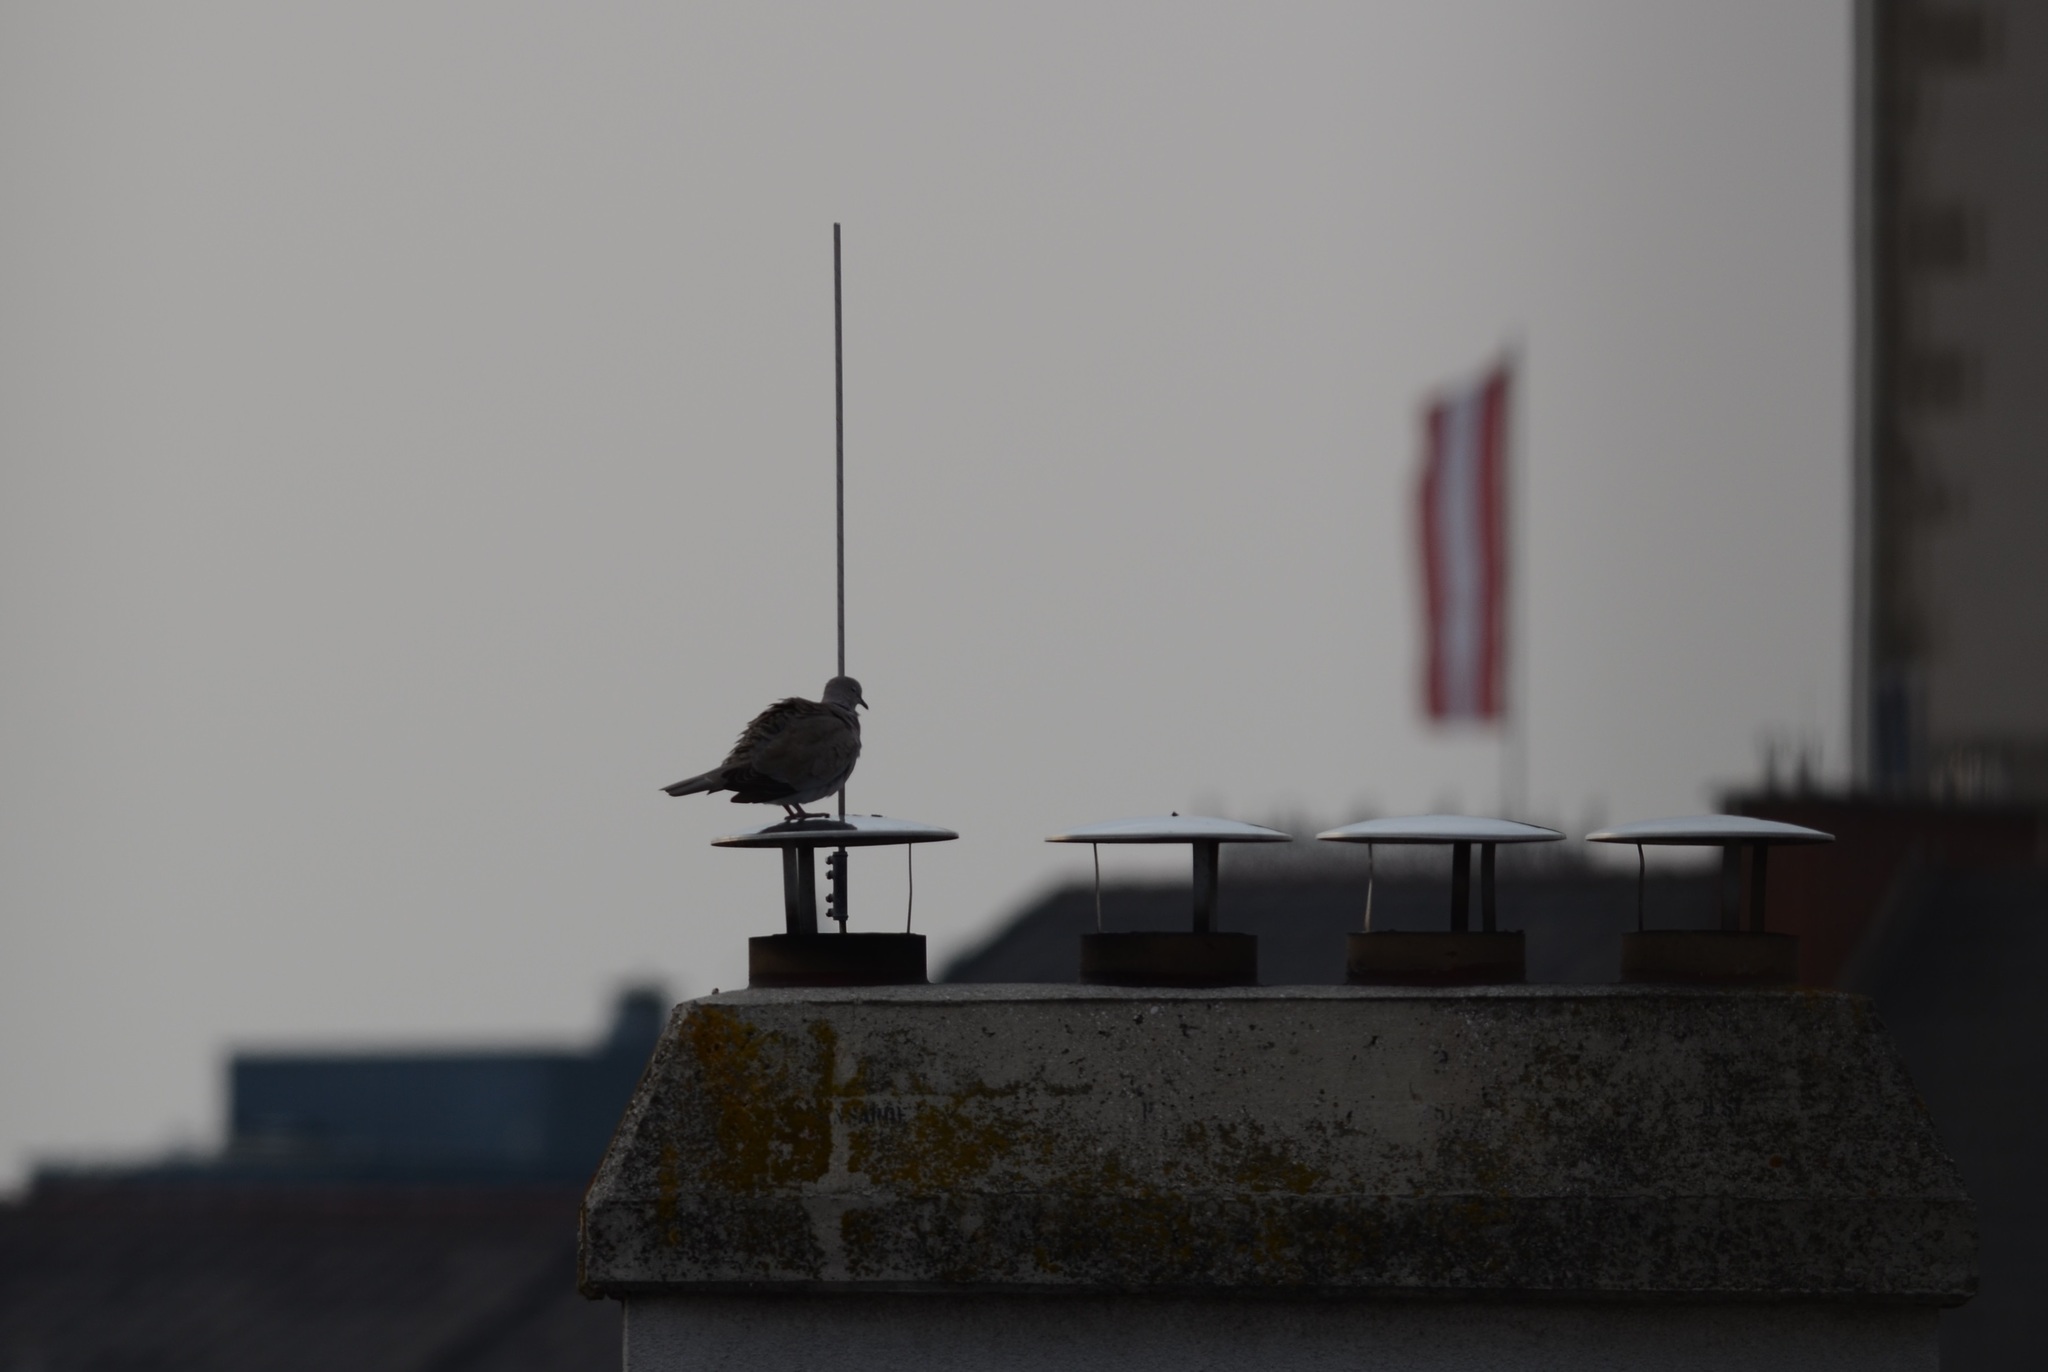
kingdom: Animalia
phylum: Chordata
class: Aves
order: Columbiformes
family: Columbidae
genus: Streptopelia
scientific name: Streptopelia decaocto
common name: Eurasian collared dove
